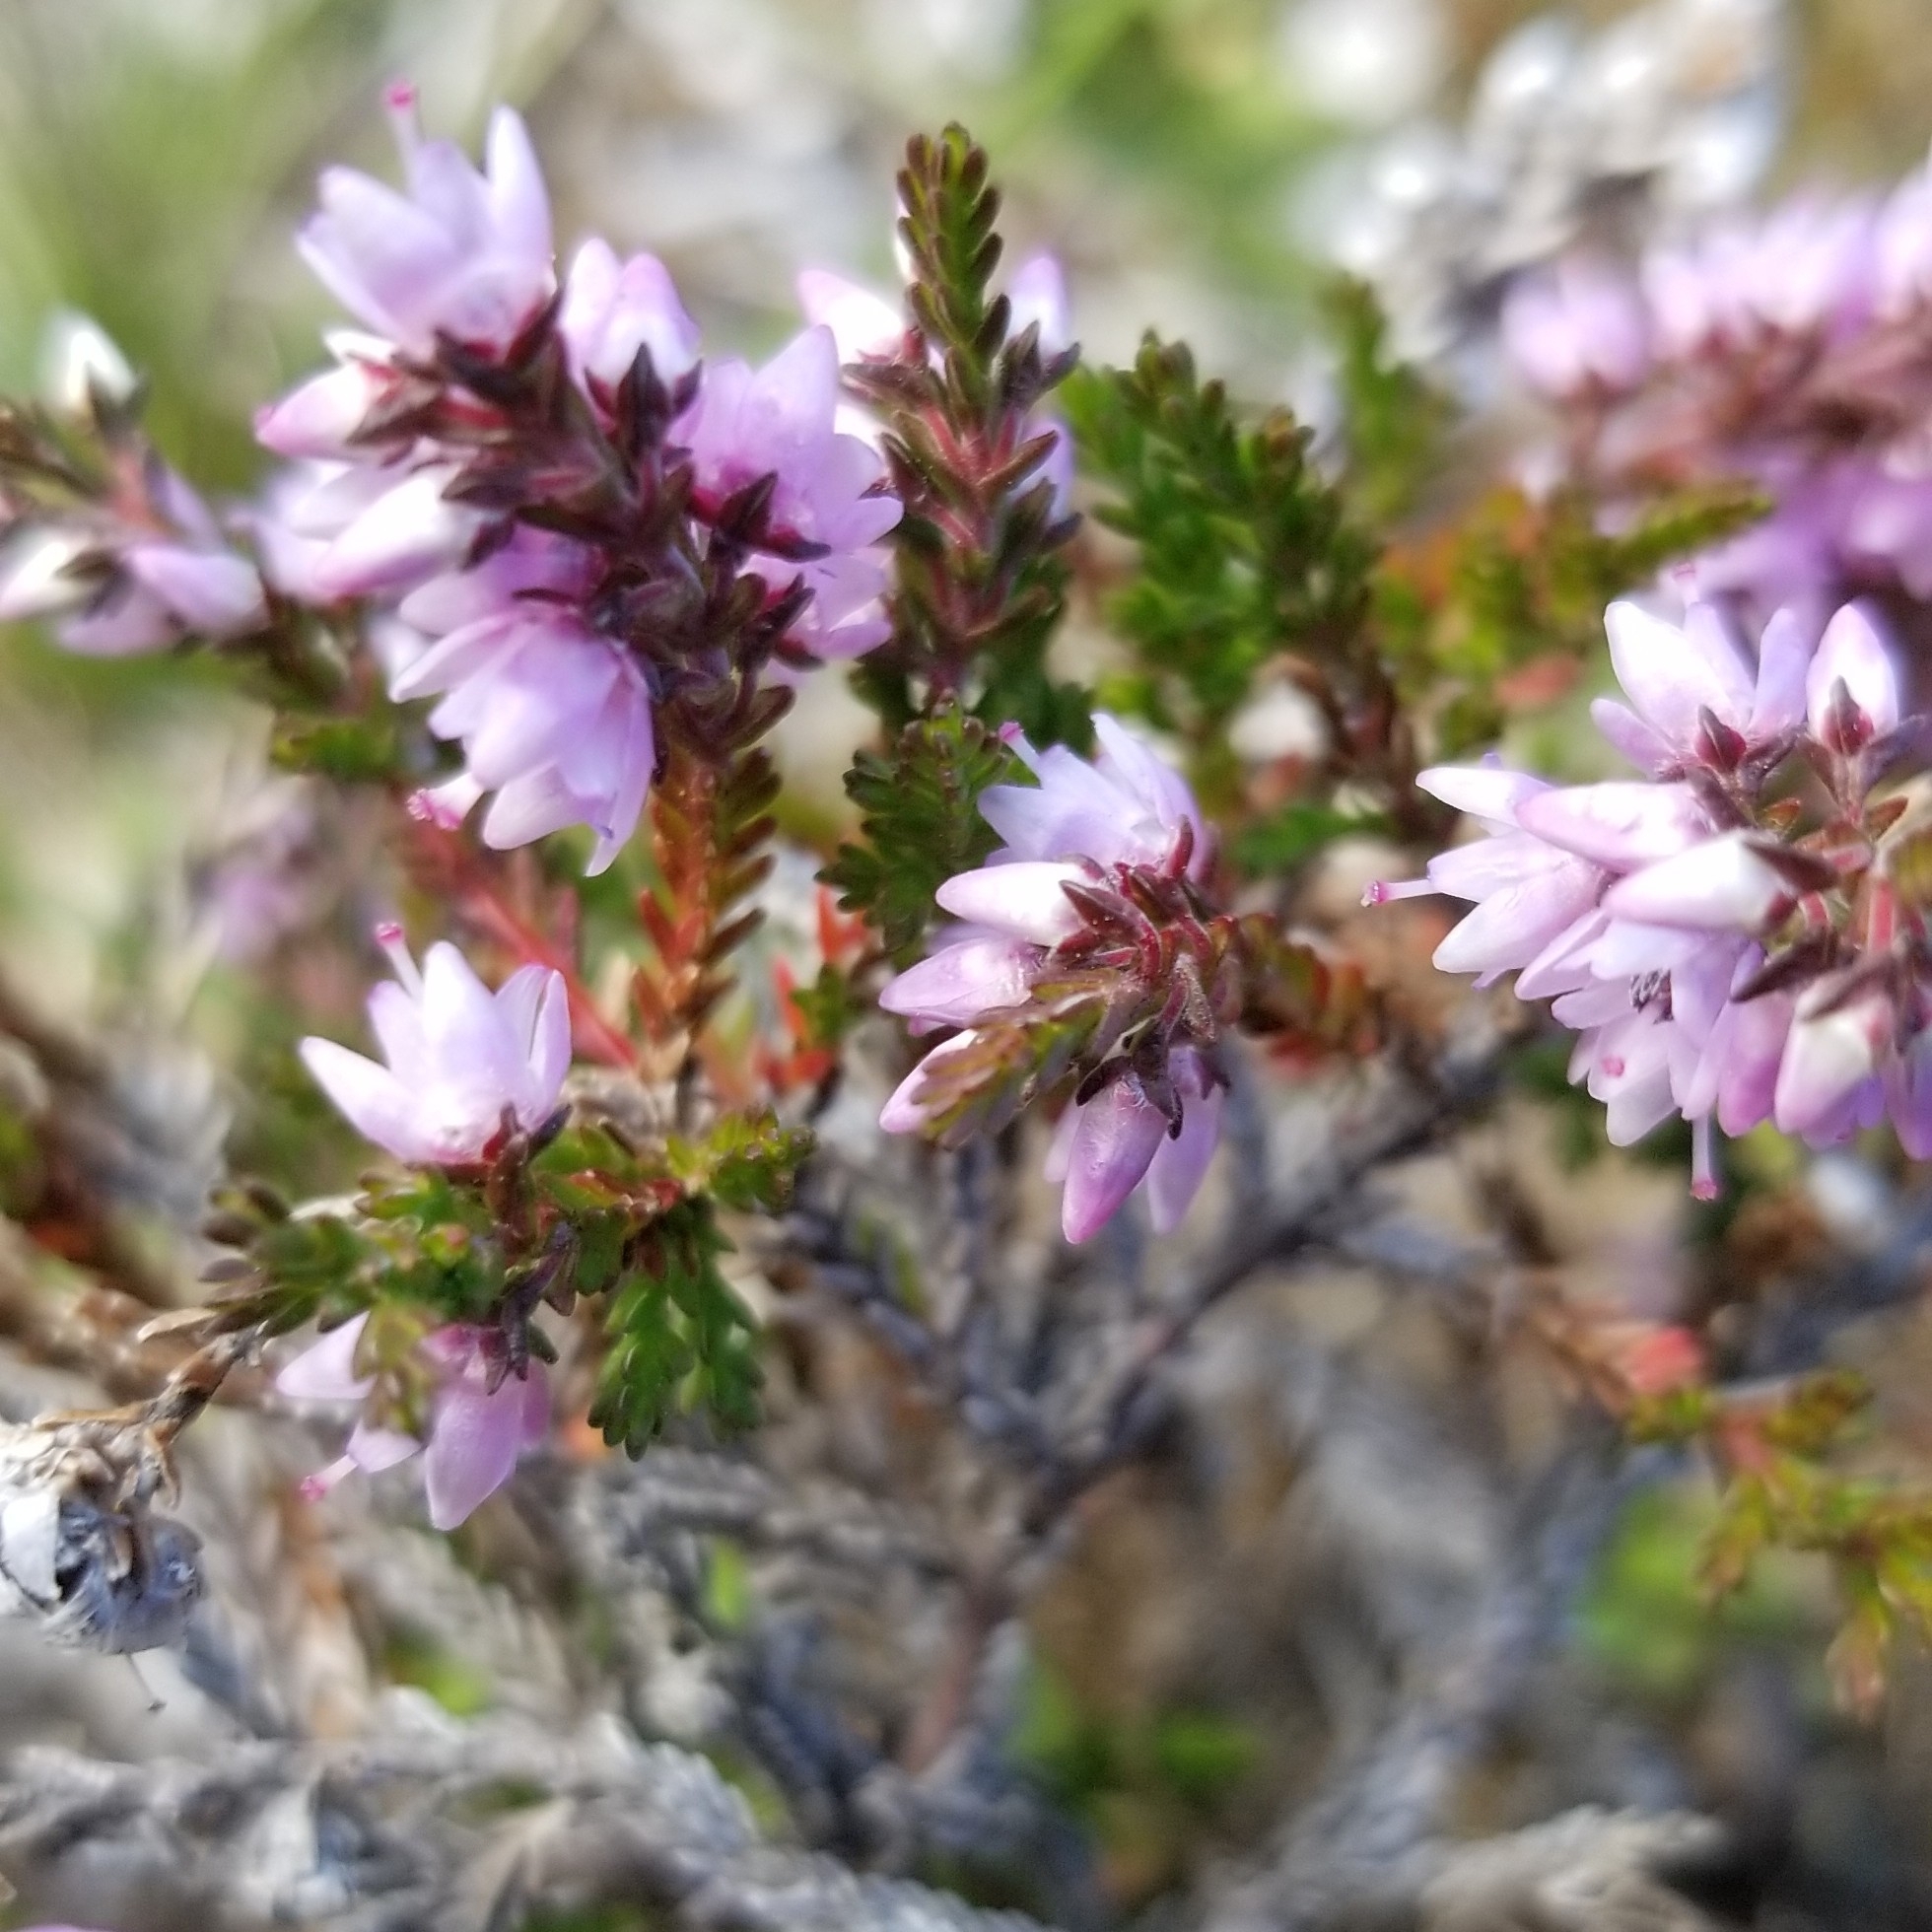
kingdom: Plantae
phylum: Tracheophyta
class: Magnoliopsida
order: Ericales
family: Ericaceae
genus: Calluna
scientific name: Calluna vulgaris
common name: Heather
